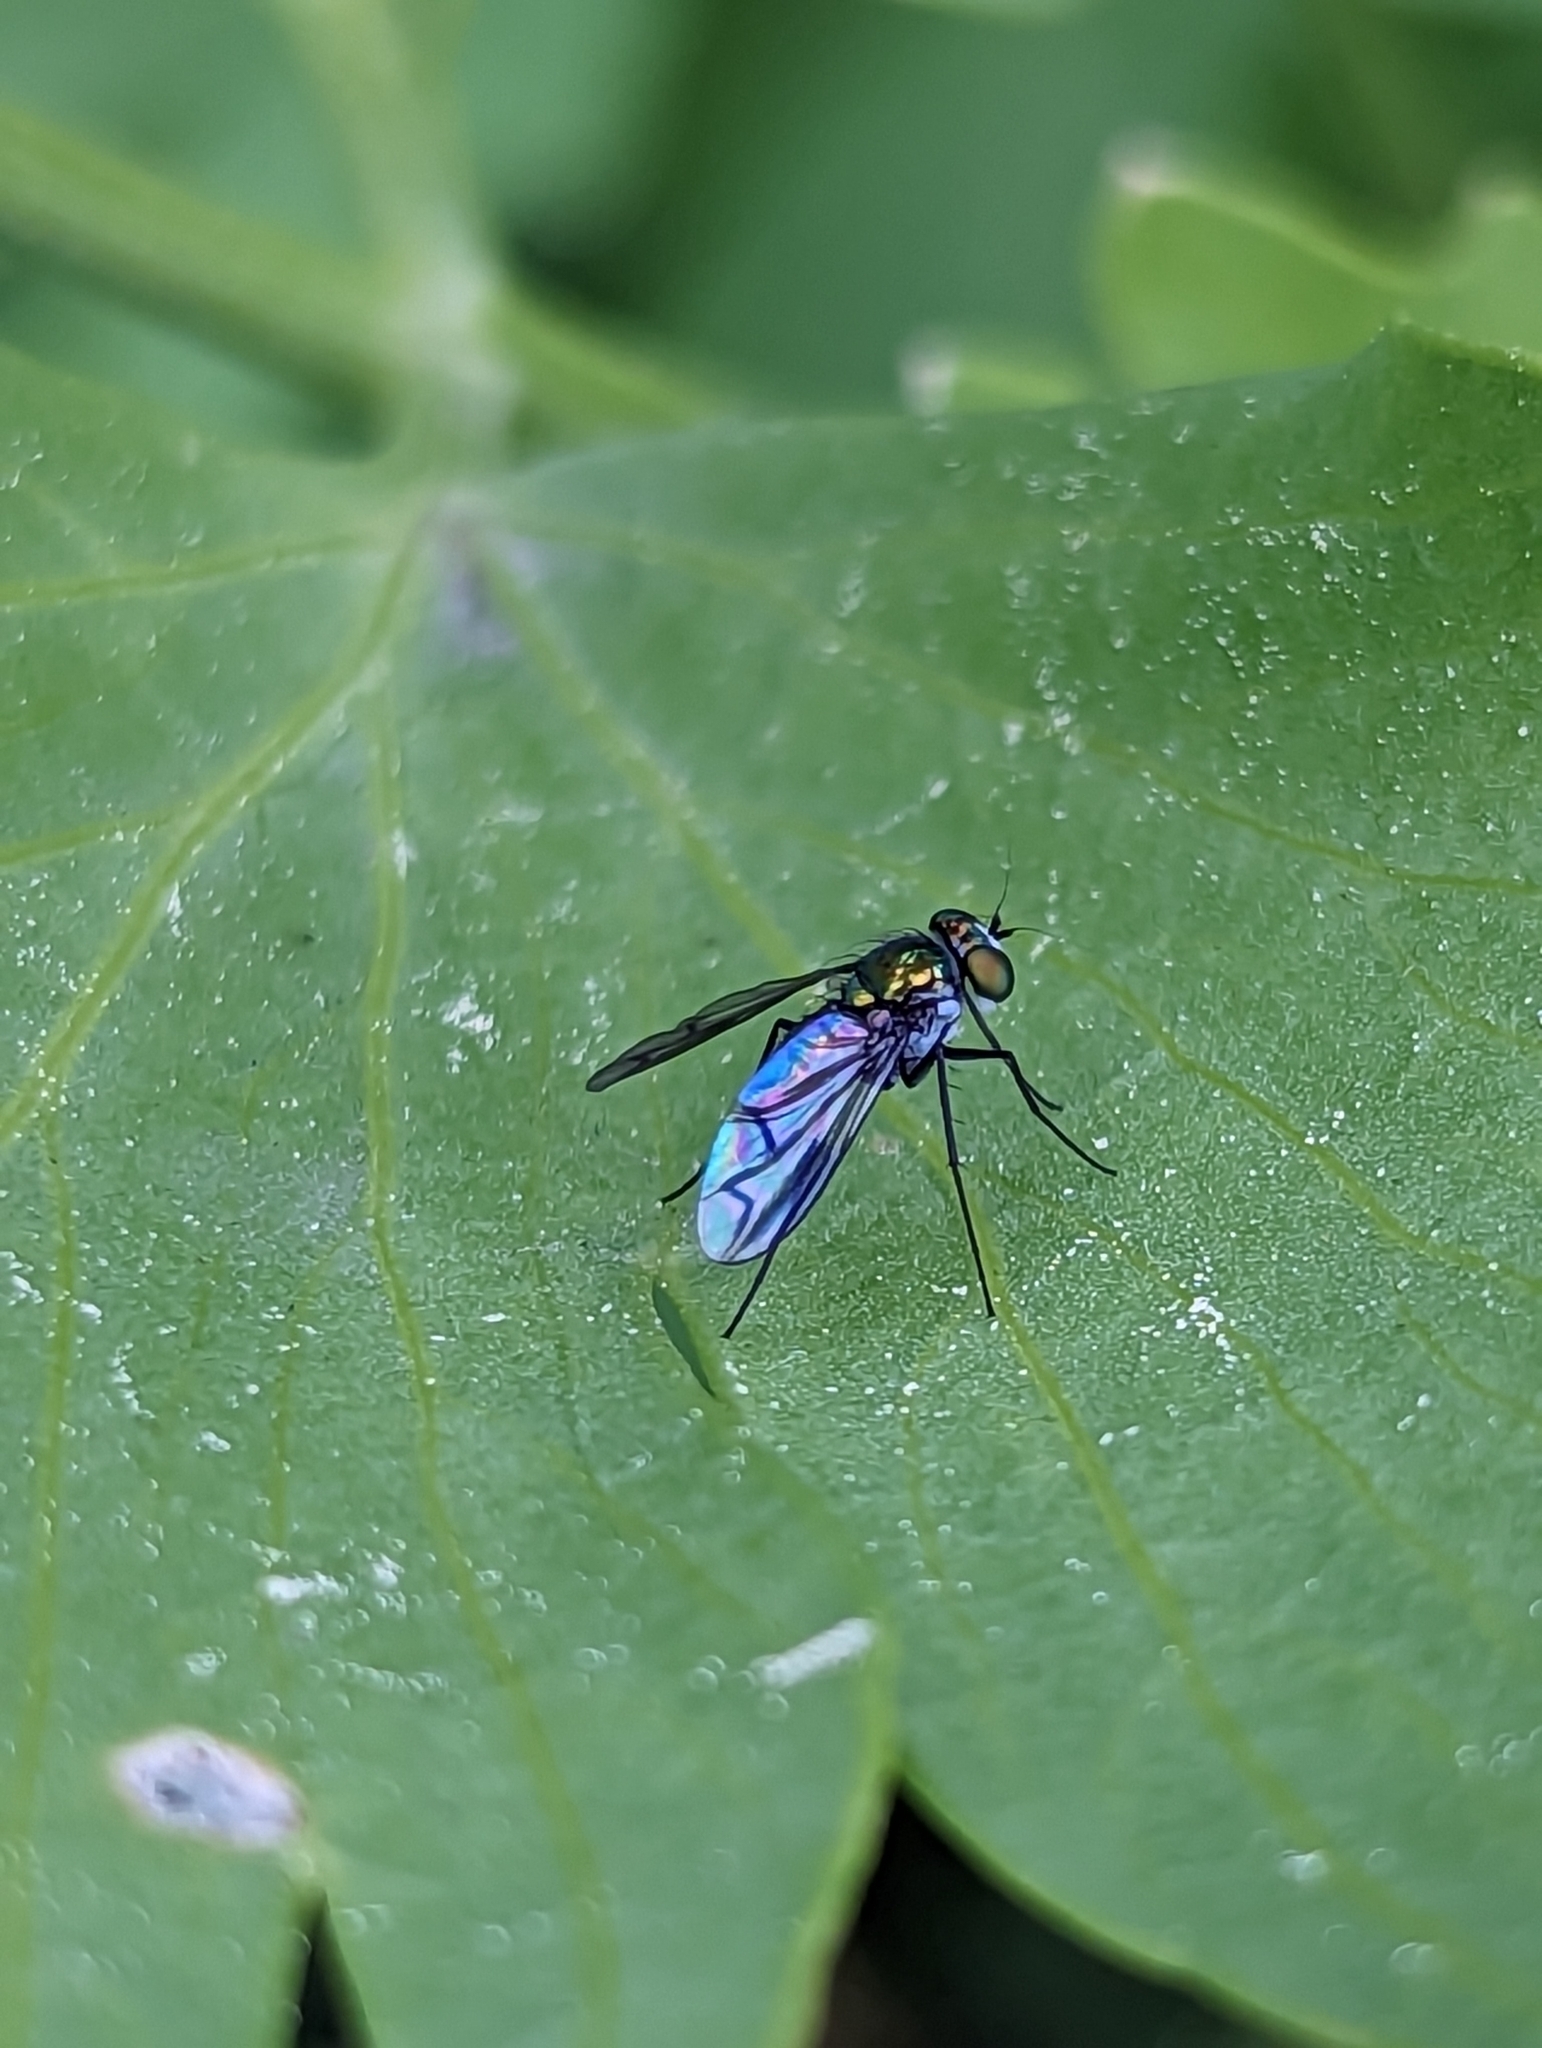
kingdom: Animalia
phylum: Arthropoda
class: Insecta
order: Diptera
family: Dolichopodidae
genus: Condylostylus
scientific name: Condylostylus patibulatus
